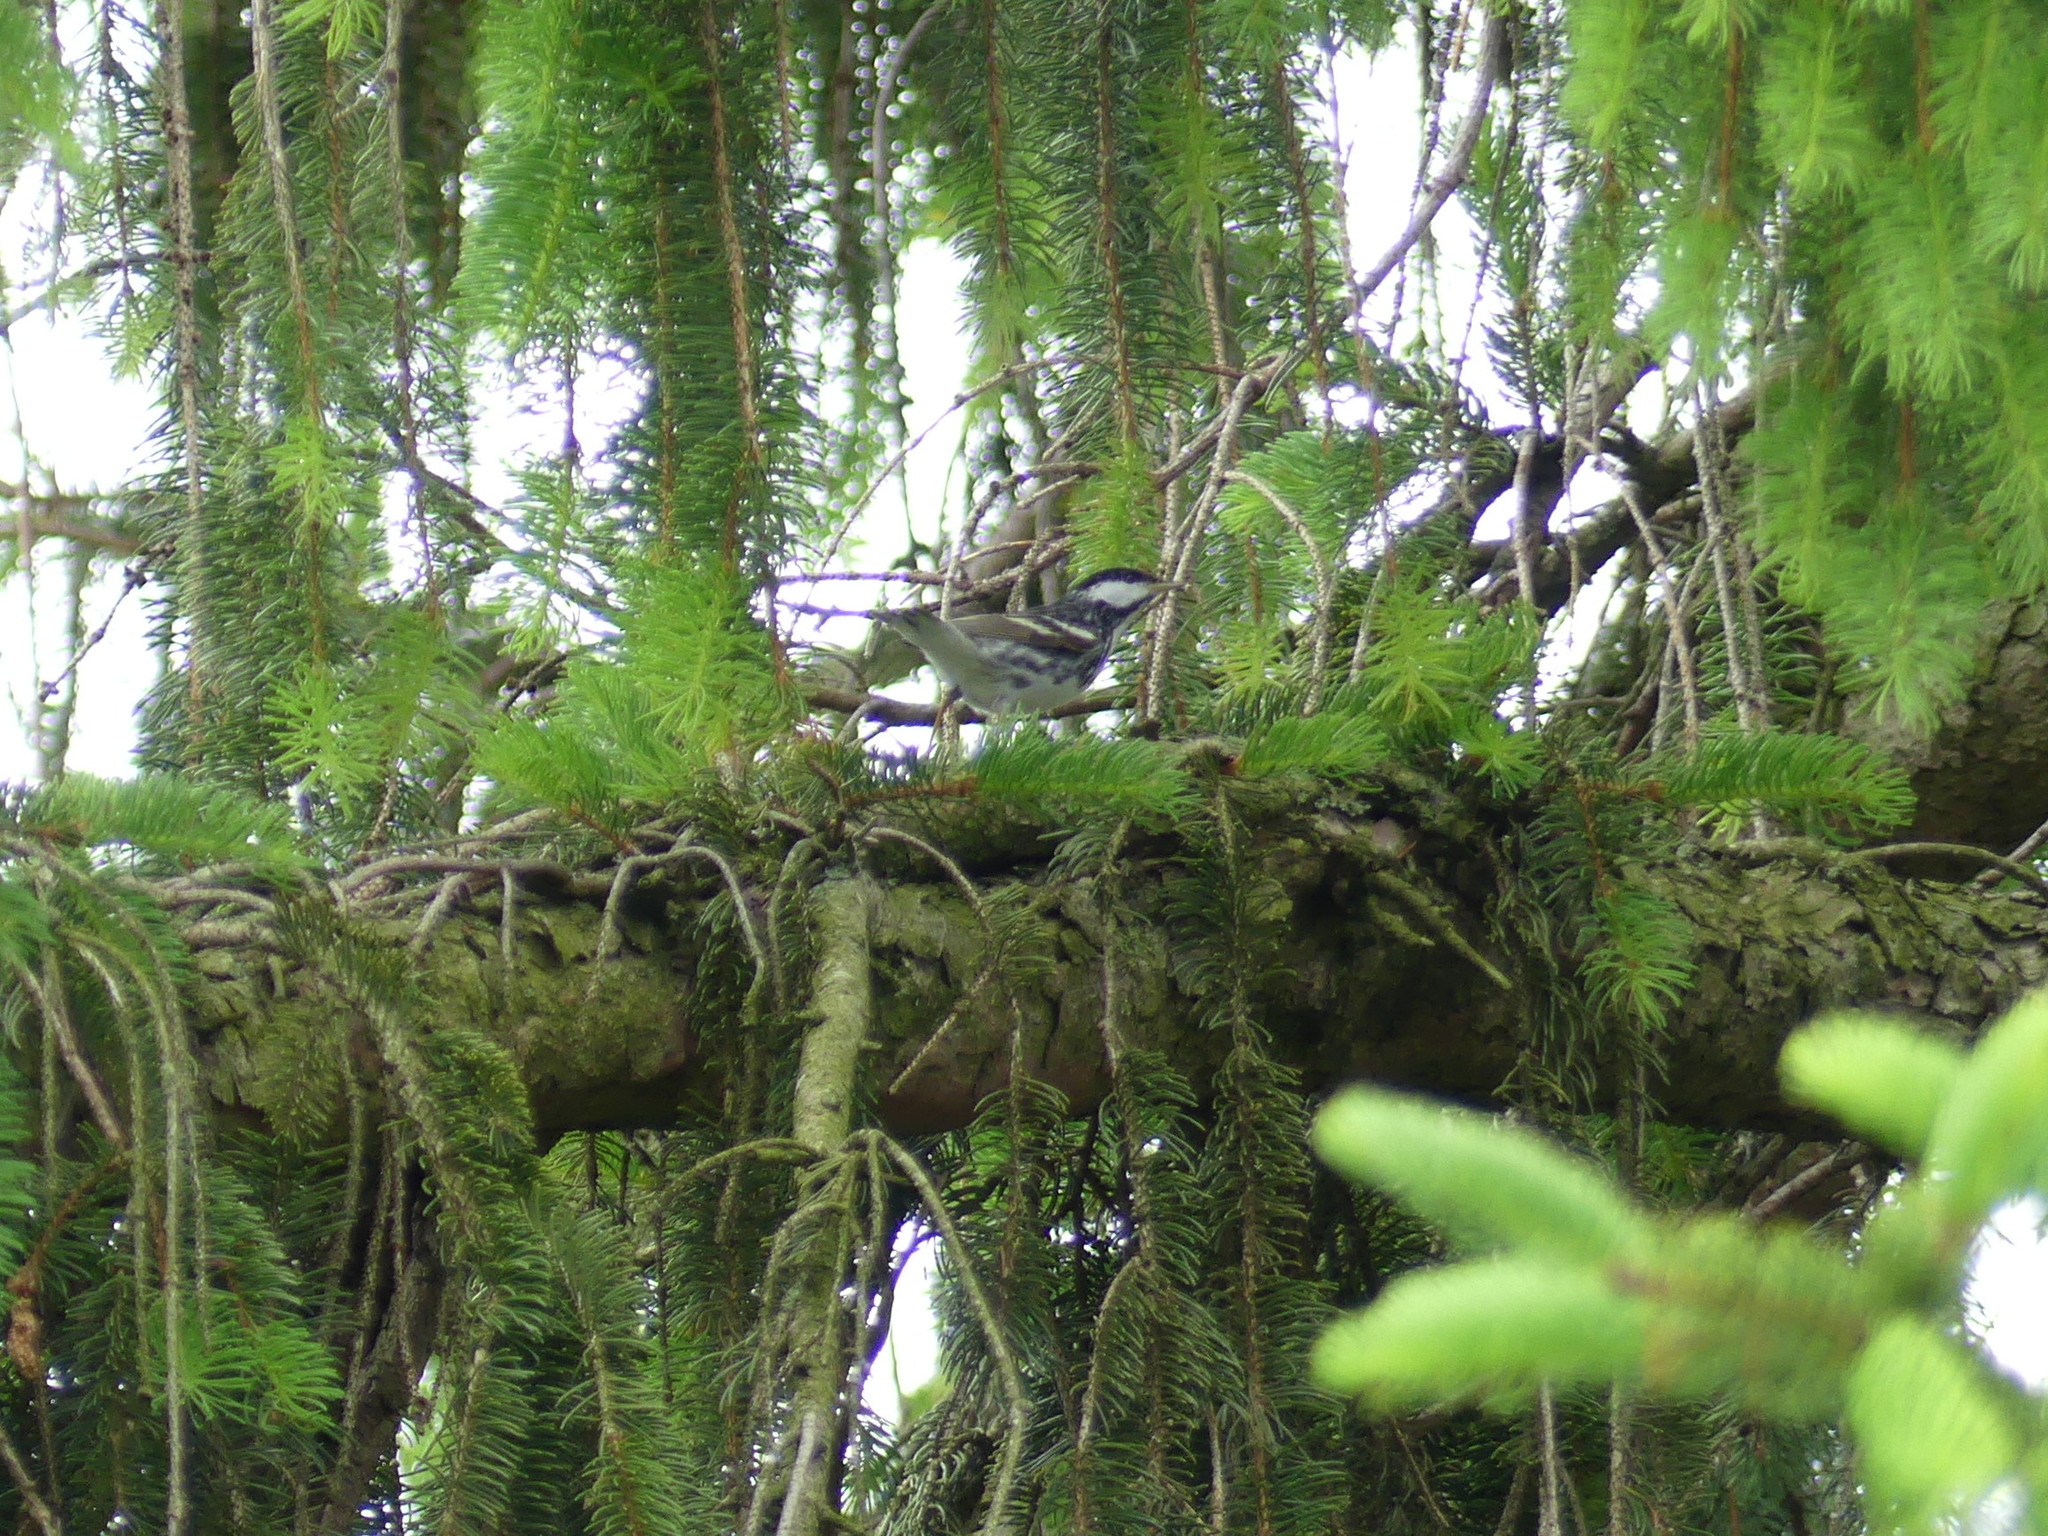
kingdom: Animalia
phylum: Chordata
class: Aves
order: Passeriformes
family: Parulidae
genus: Setophaga
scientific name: Setophaga striata
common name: Blackpoll warbler
